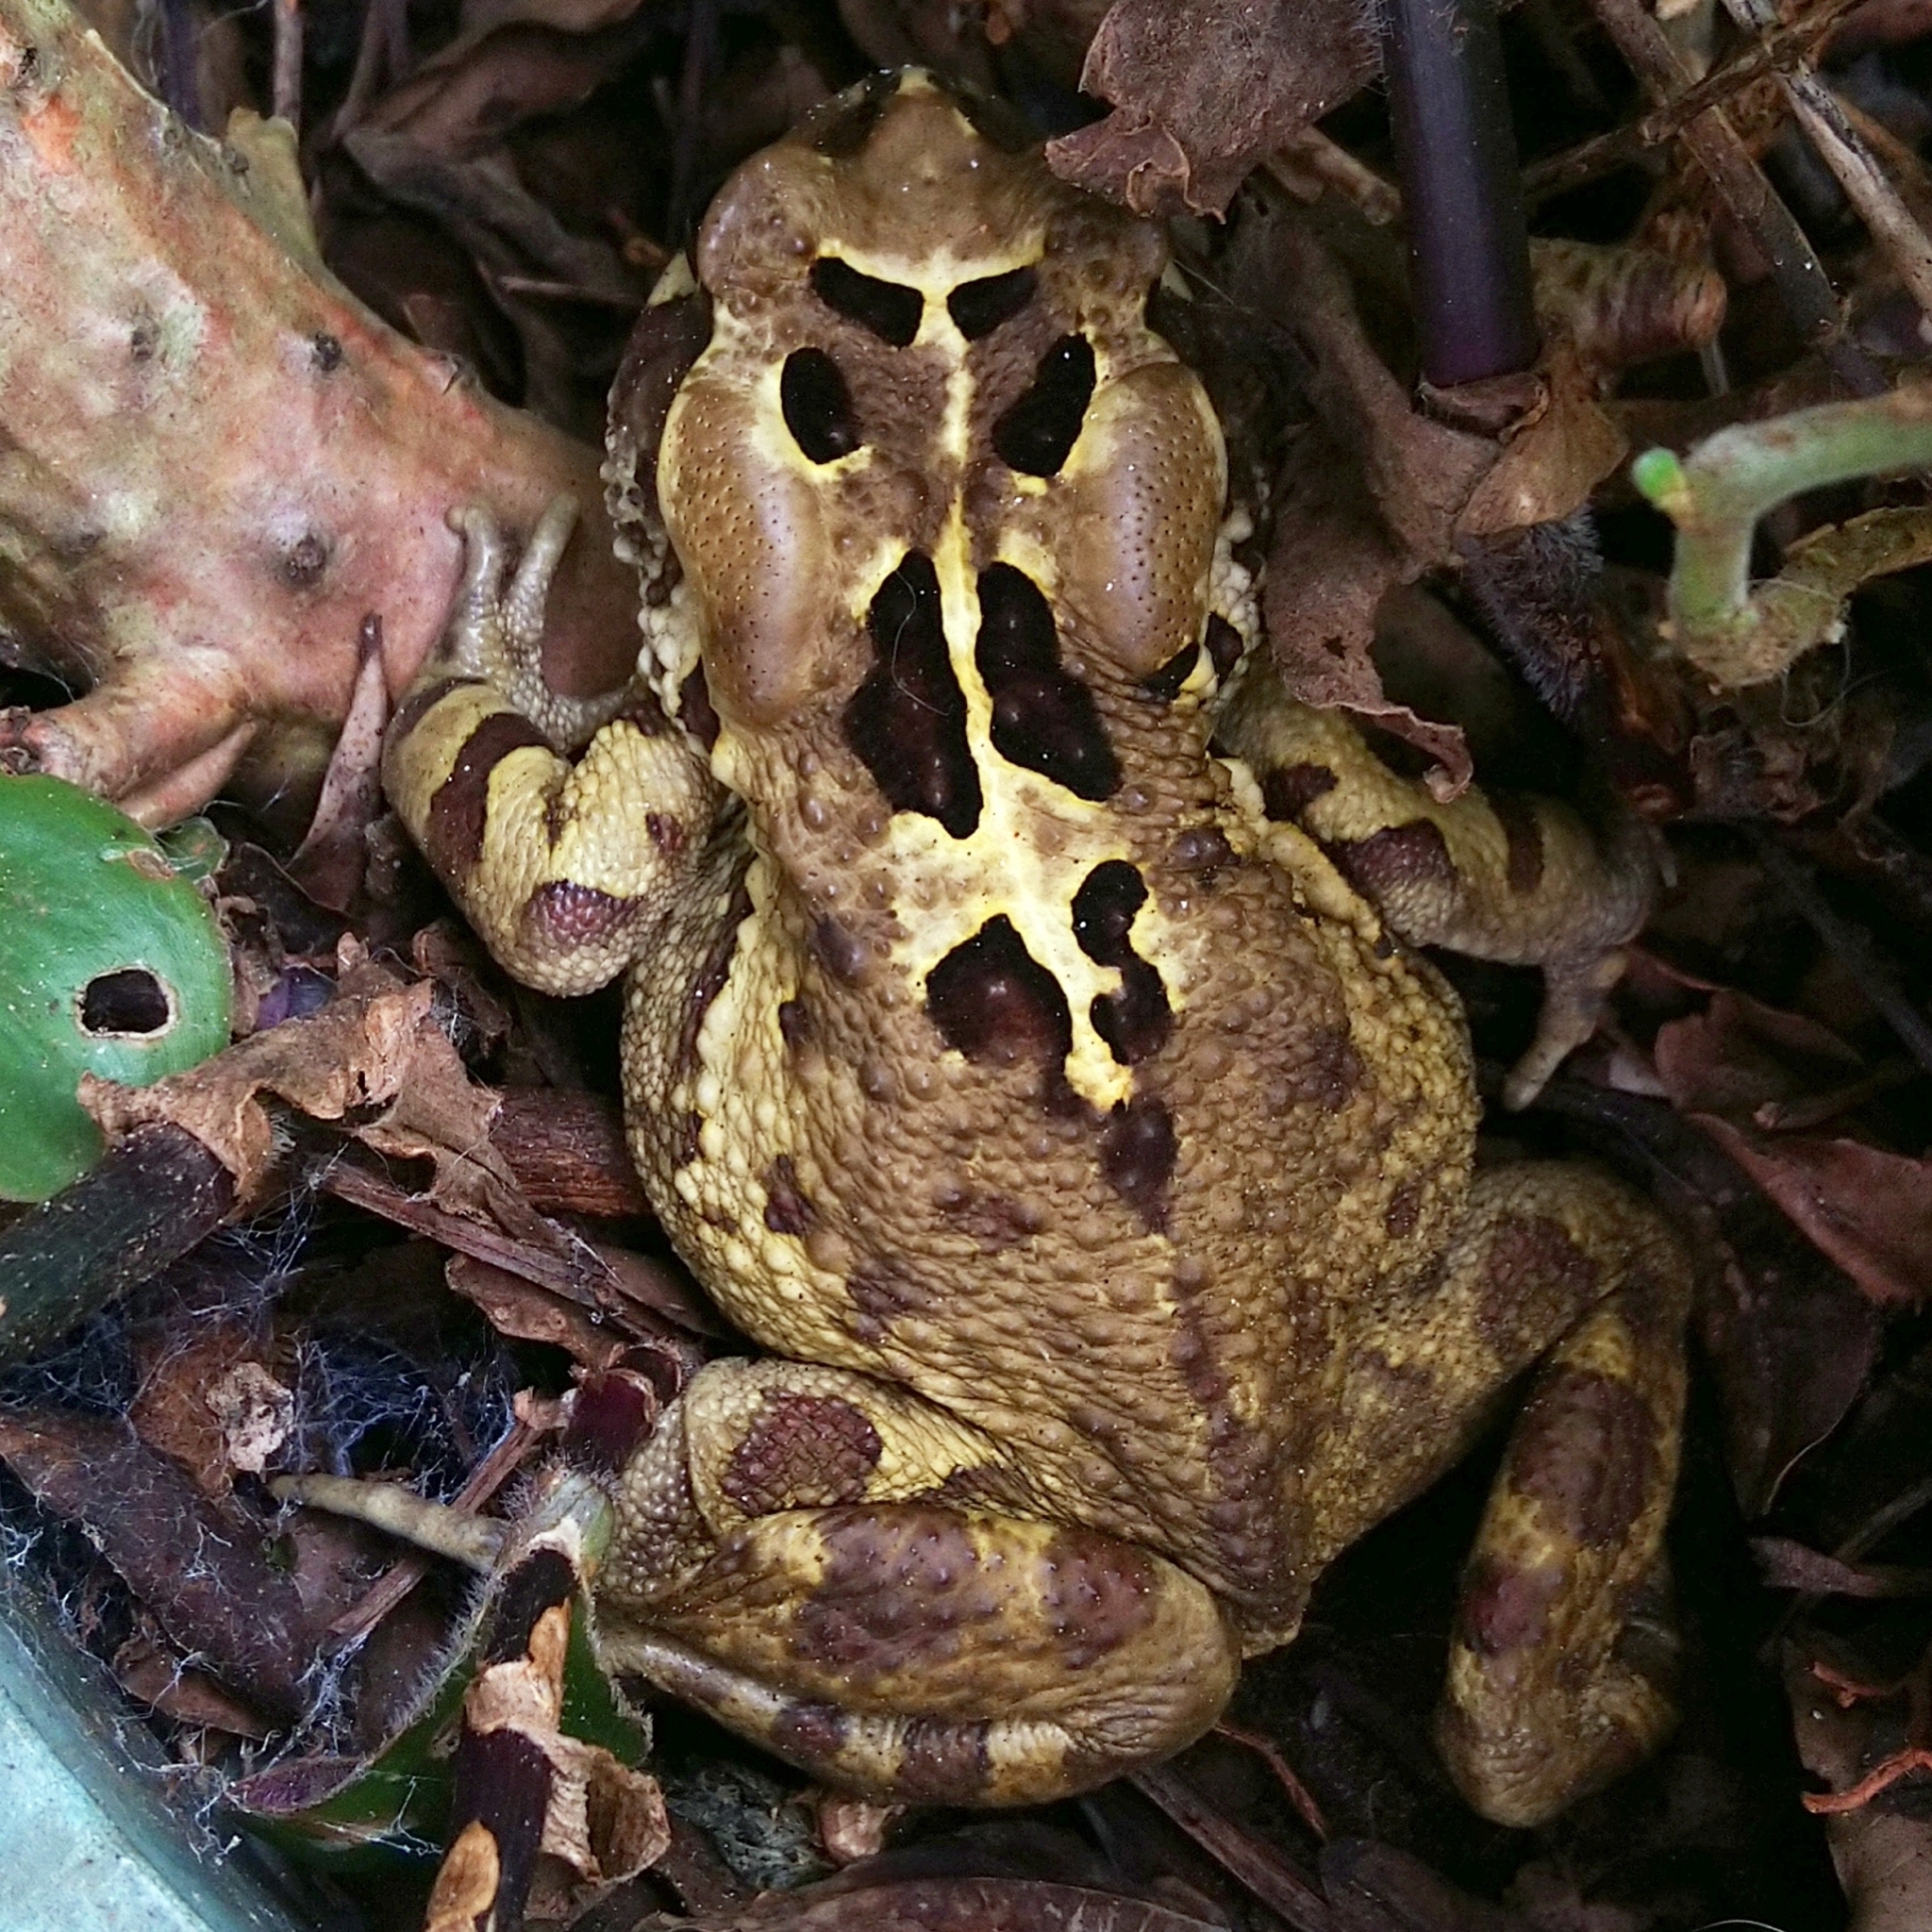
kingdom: Animalia
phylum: Chordata
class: Amphibia
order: Anura
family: Bufonidae
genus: Sclerophrys
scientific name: Sclerophrys pardalis
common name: Eastern leopard toad
